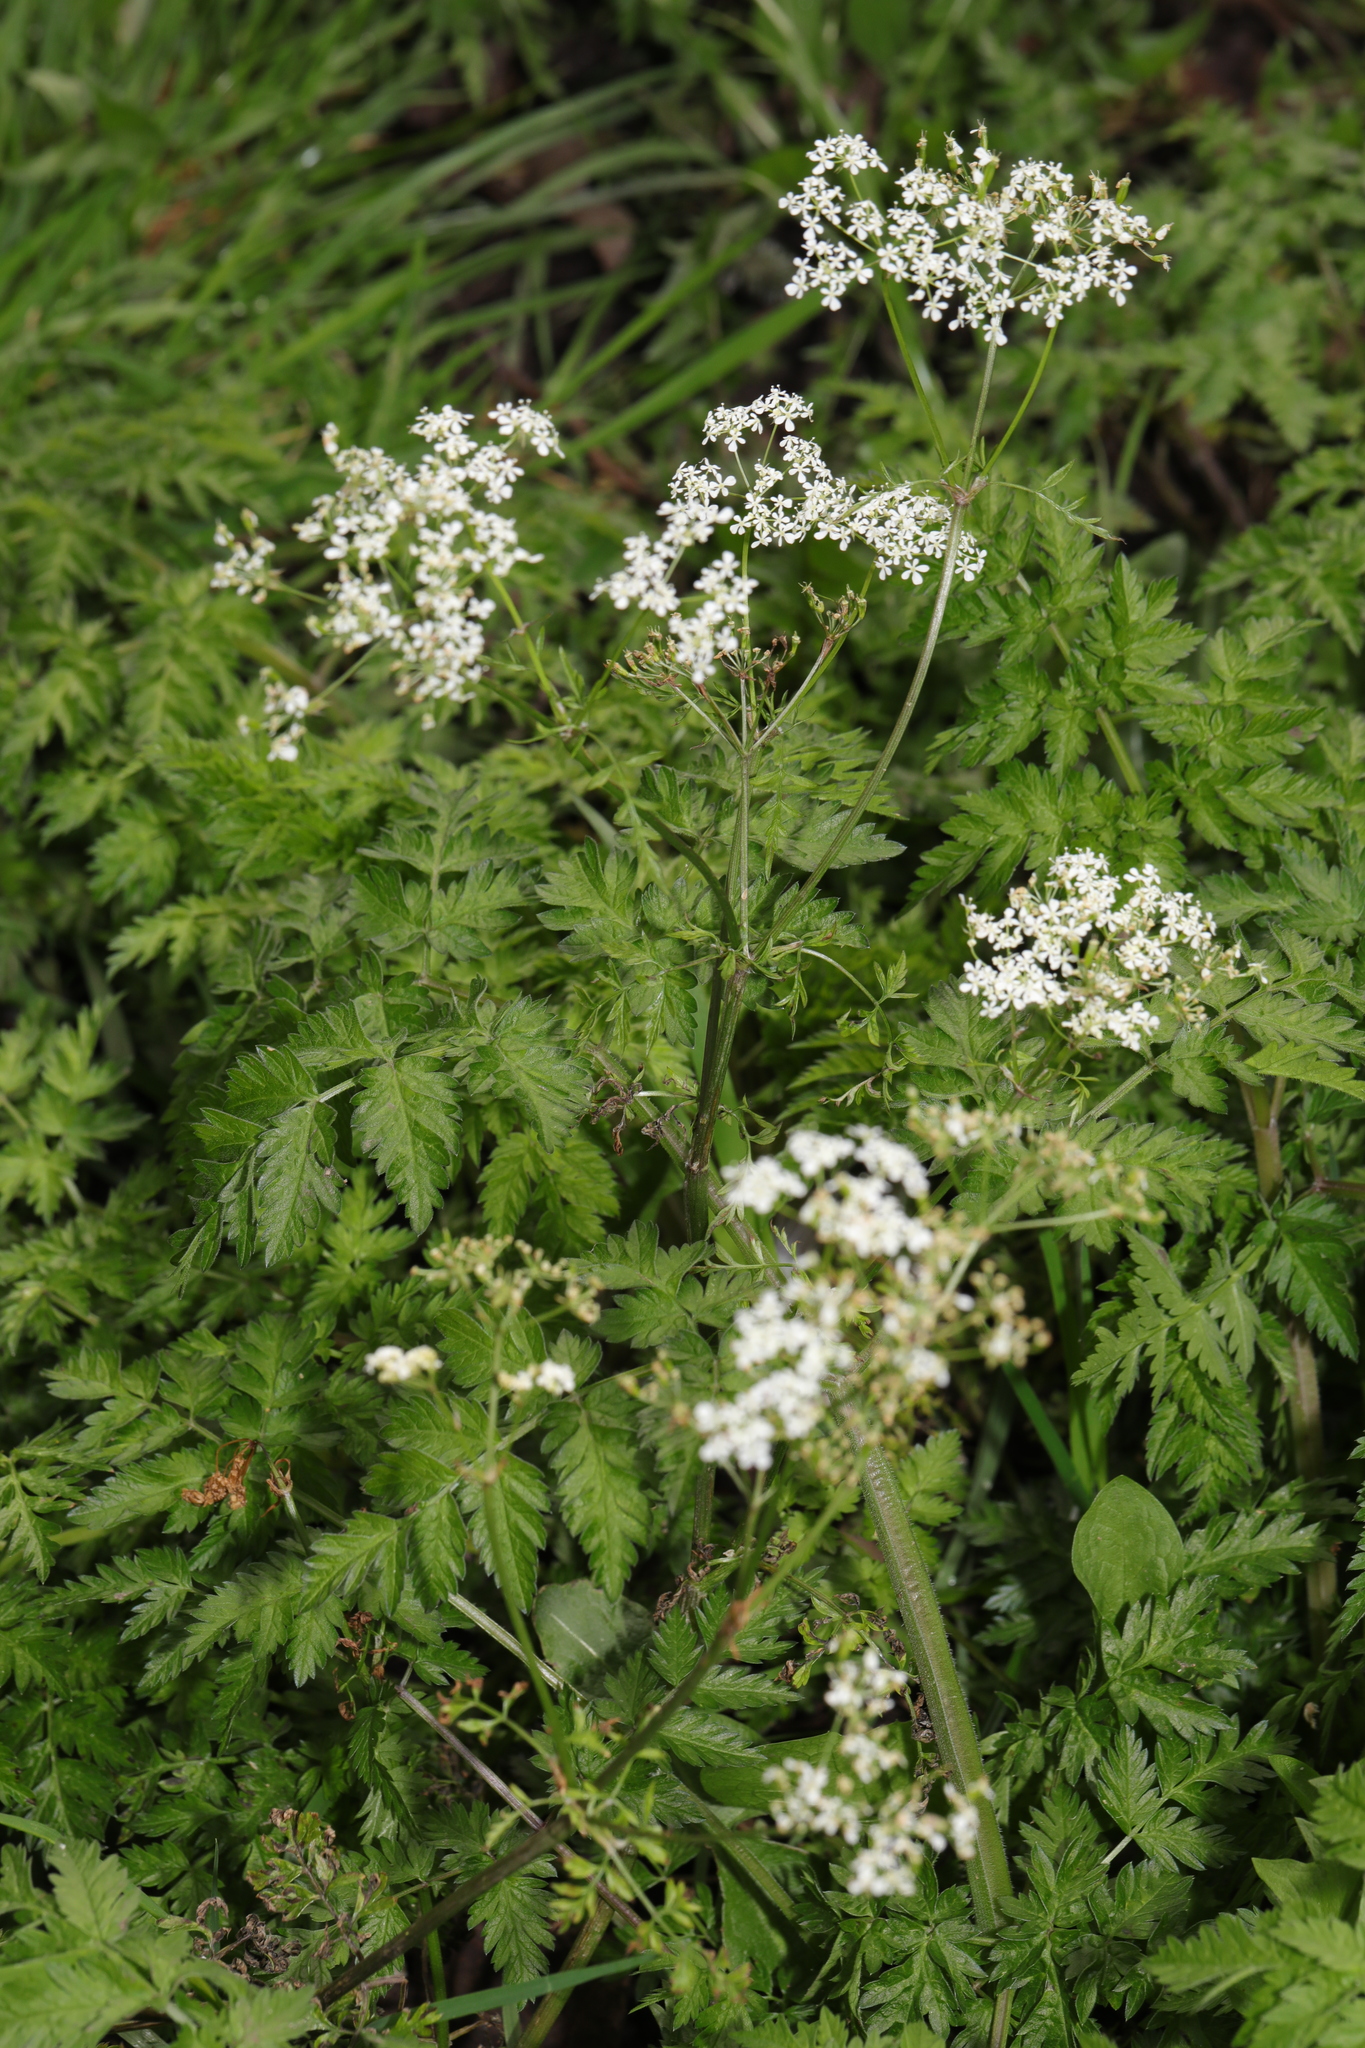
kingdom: Plantae
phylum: Tracheophyta
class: Magnoliopsida
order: Apiales
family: Apiaceae
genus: Anthriscus
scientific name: Anthriscus sylvestris
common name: Cow parsley
